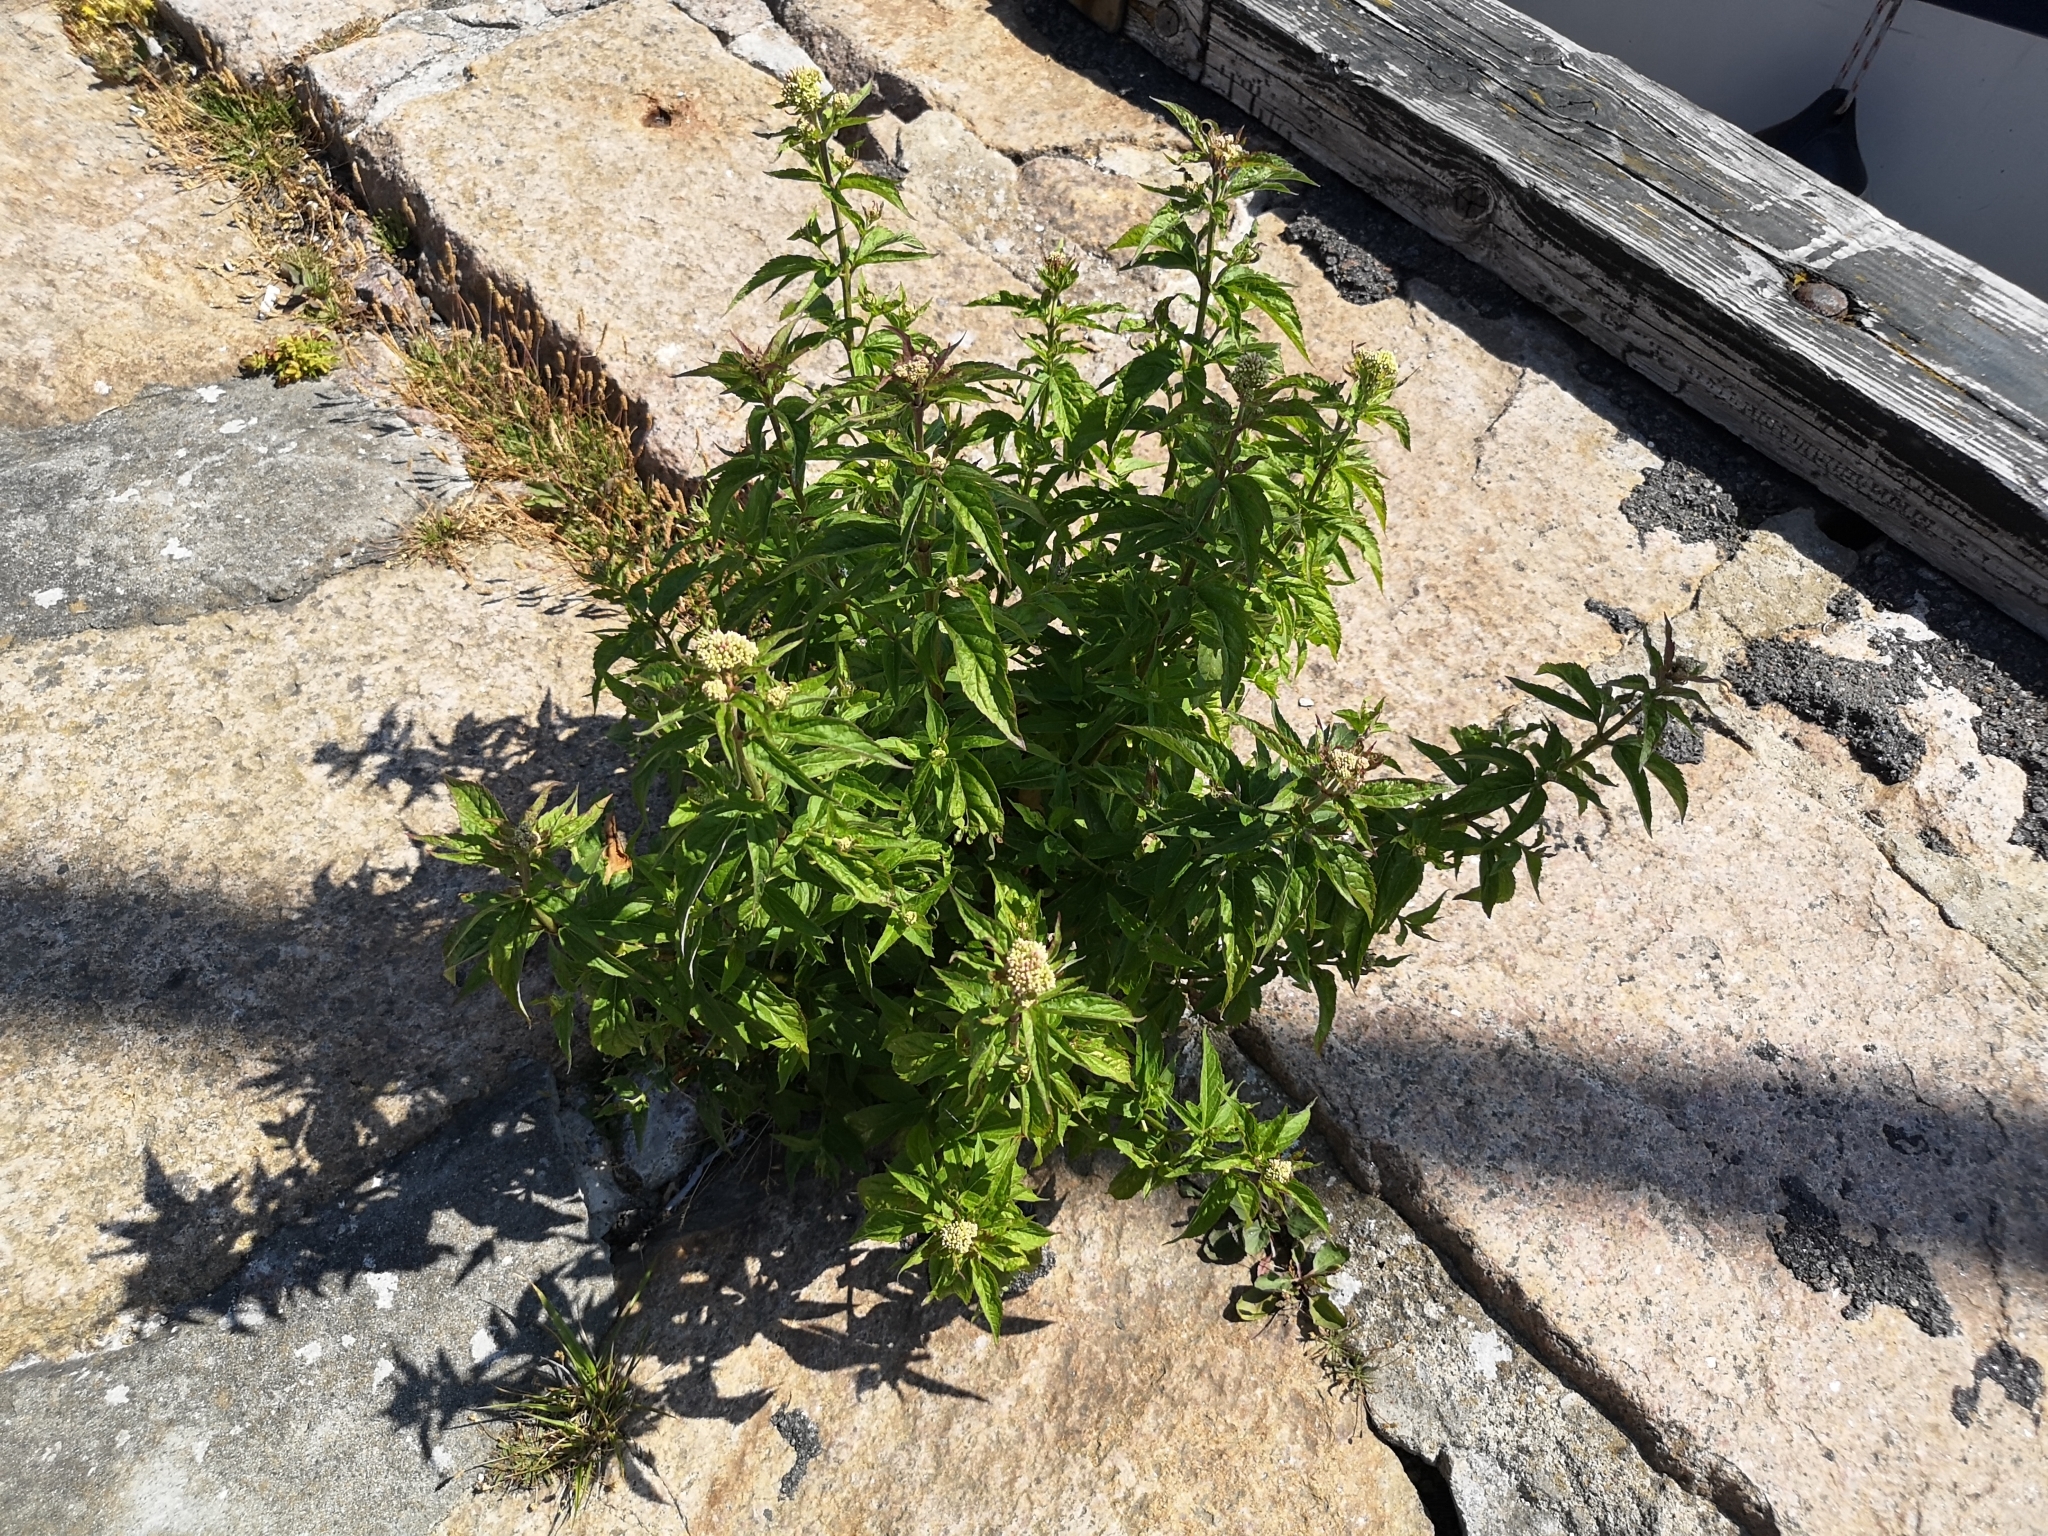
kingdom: Plantae
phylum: Tracheophyta
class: Magnoliopsida
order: Asterales
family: Asteraceae
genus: Eupatorium
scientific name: Eupatorium cannabinum
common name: Hemp-agrimony
